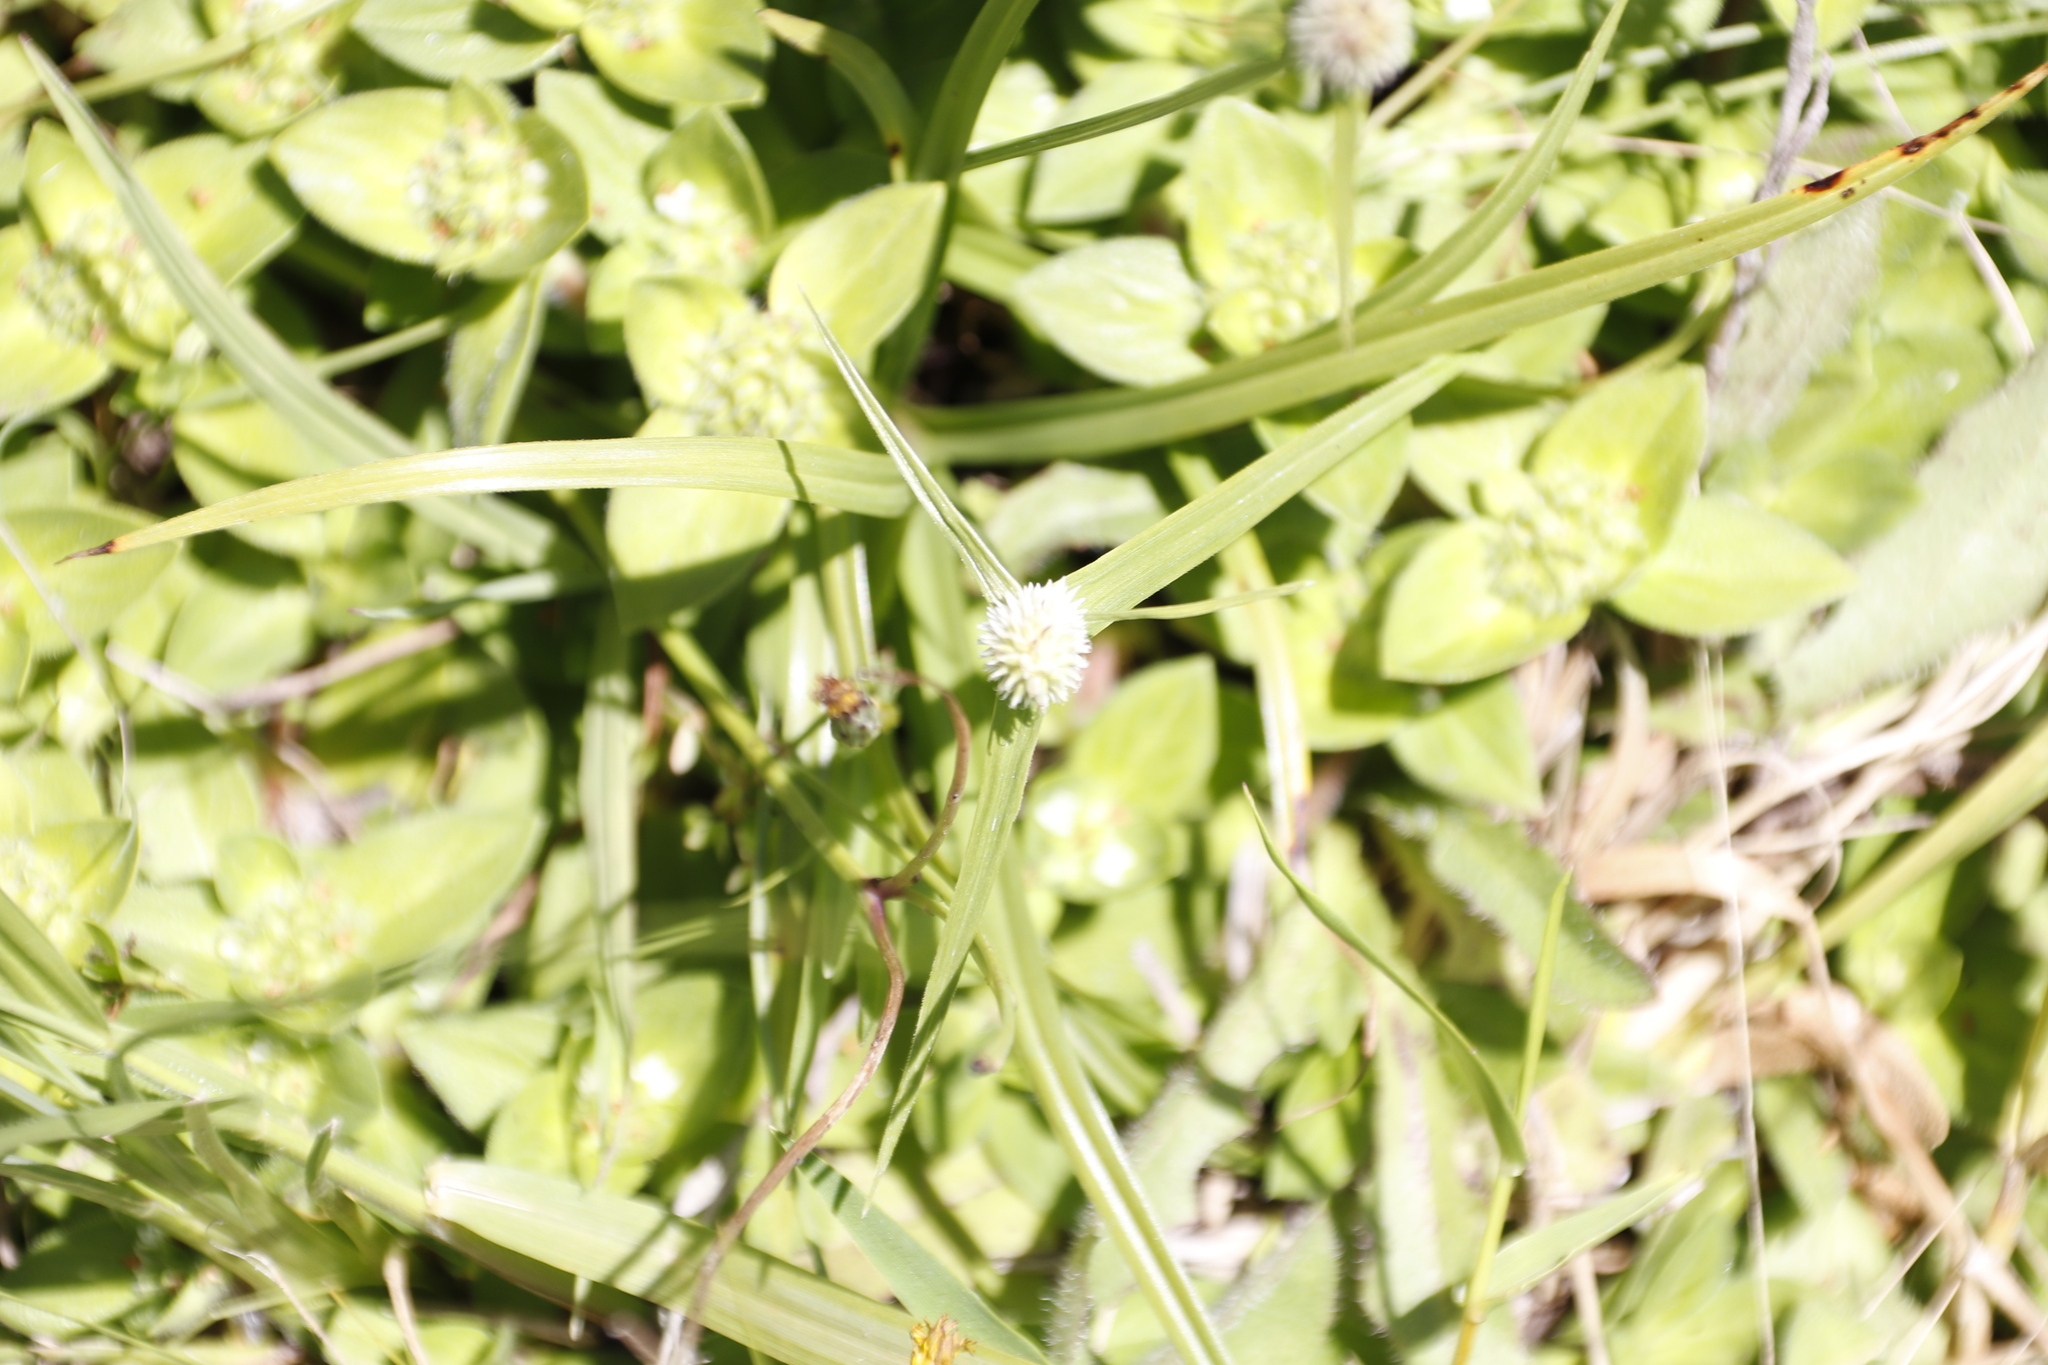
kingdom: Plantae
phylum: Tracheophyta
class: Liliopsida
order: Poales
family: Cyperaceae
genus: Cyperus
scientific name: Cyperus sesquiflorus
